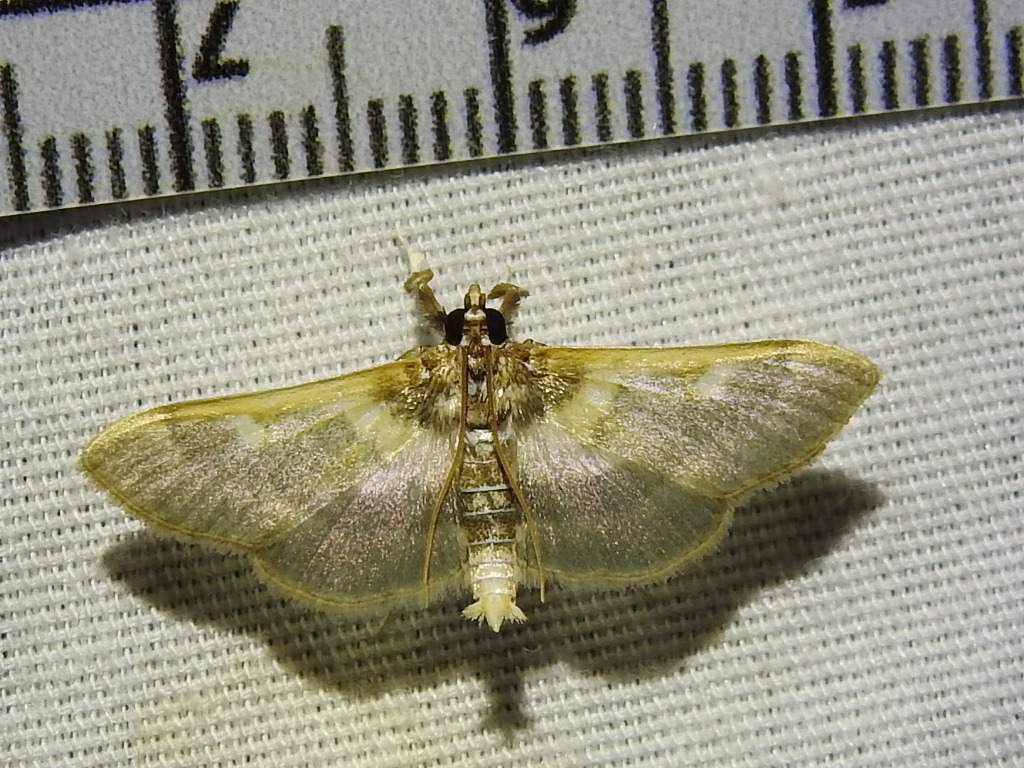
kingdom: Animalia
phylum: Arthropoda
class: Insecta
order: Lepidoptera
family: Crambidae
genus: Apilocrocis
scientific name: Apilocrocis brumalis
